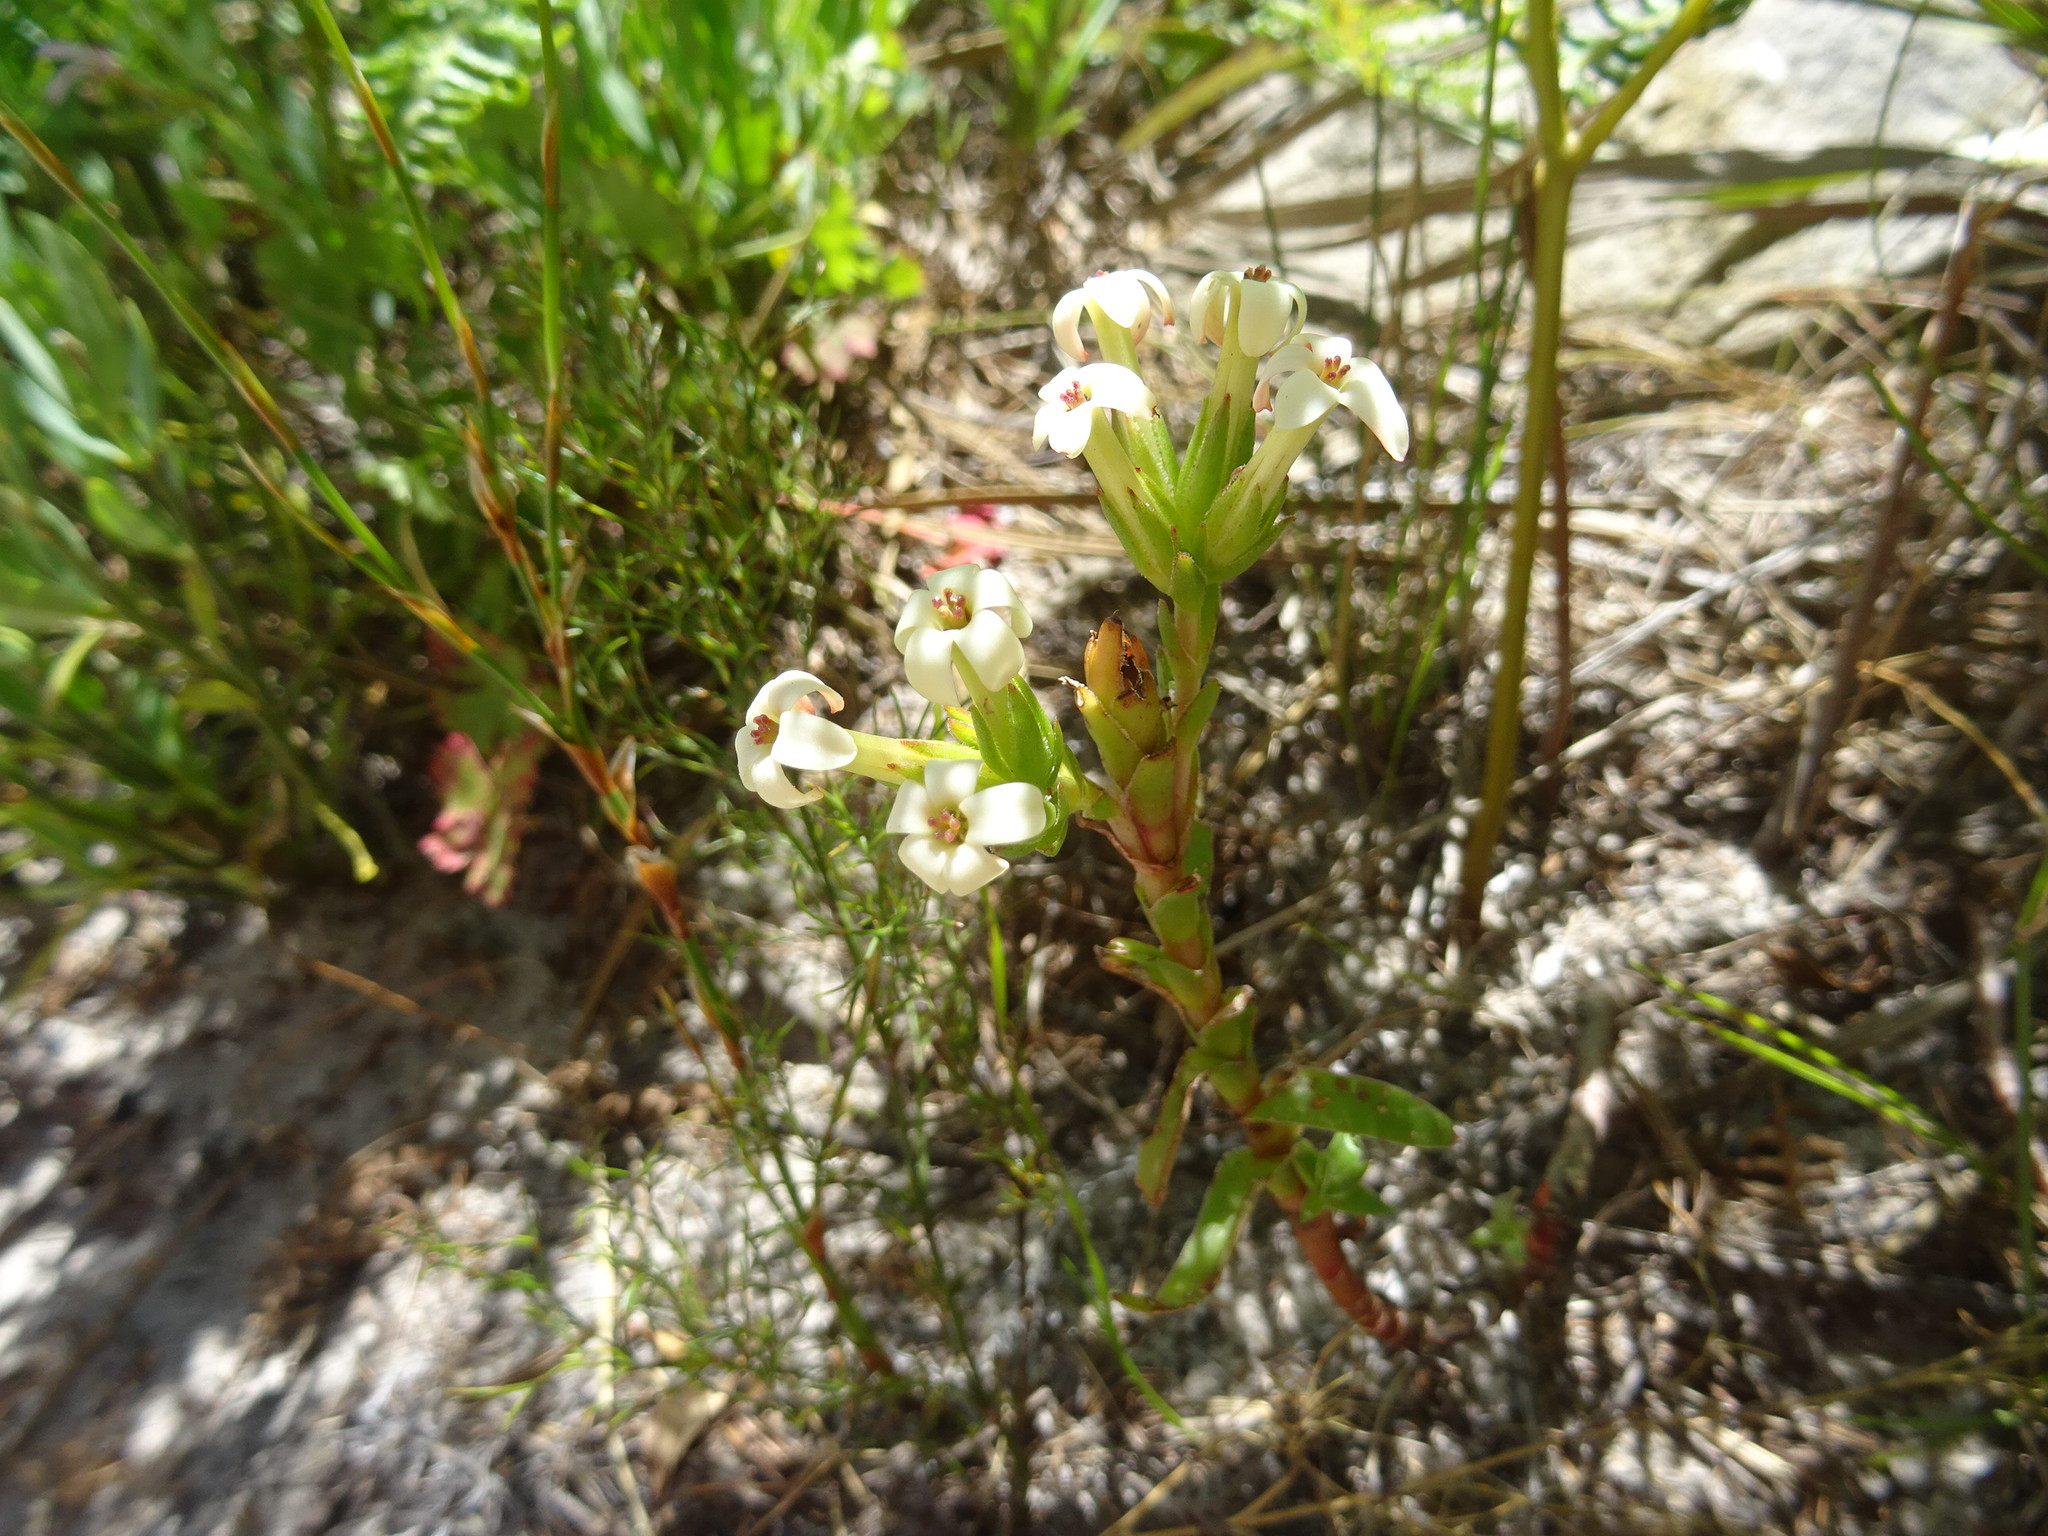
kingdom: Plantae
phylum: Tracheophyta
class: Magnoliopsida
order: Saxifragales
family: Crassulaceae
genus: Crassula
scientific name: Crassula fascicularis
